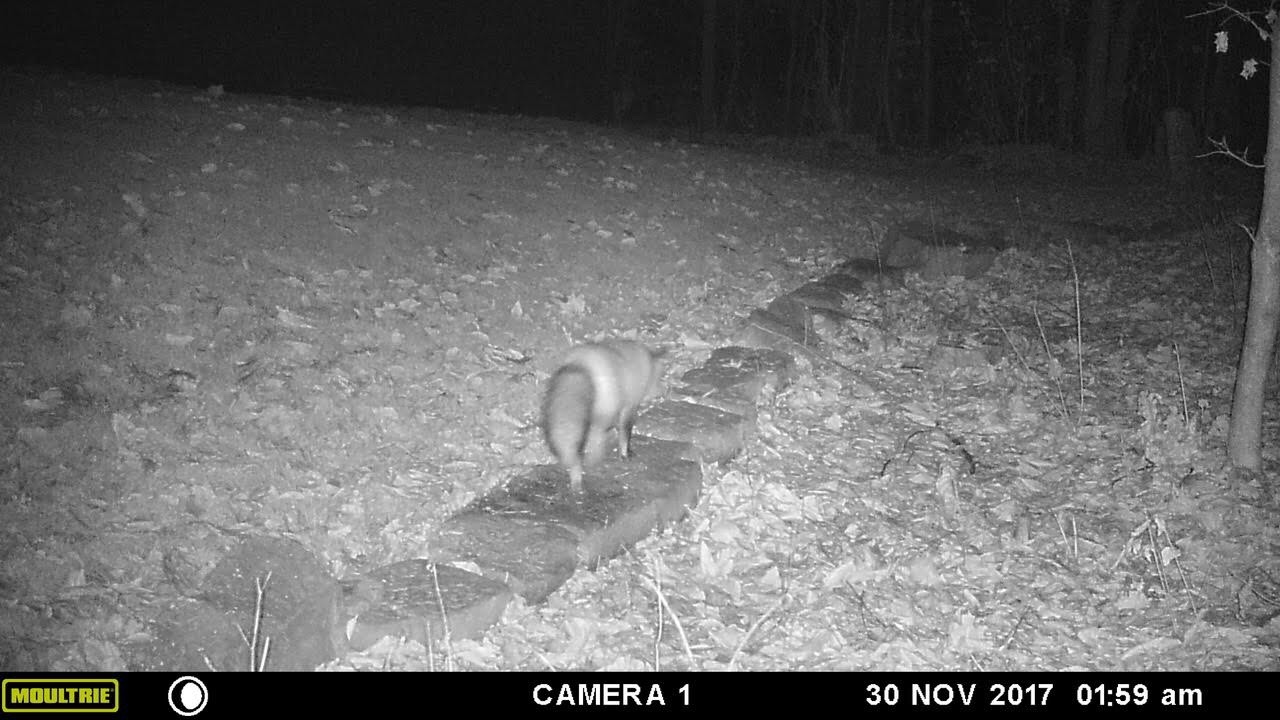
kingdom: Animalia
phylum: Chordata
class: Mammalia
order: Carnivora
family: Canidae
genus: Vulpes
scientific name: Vulpes vulpes
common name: Red fox
